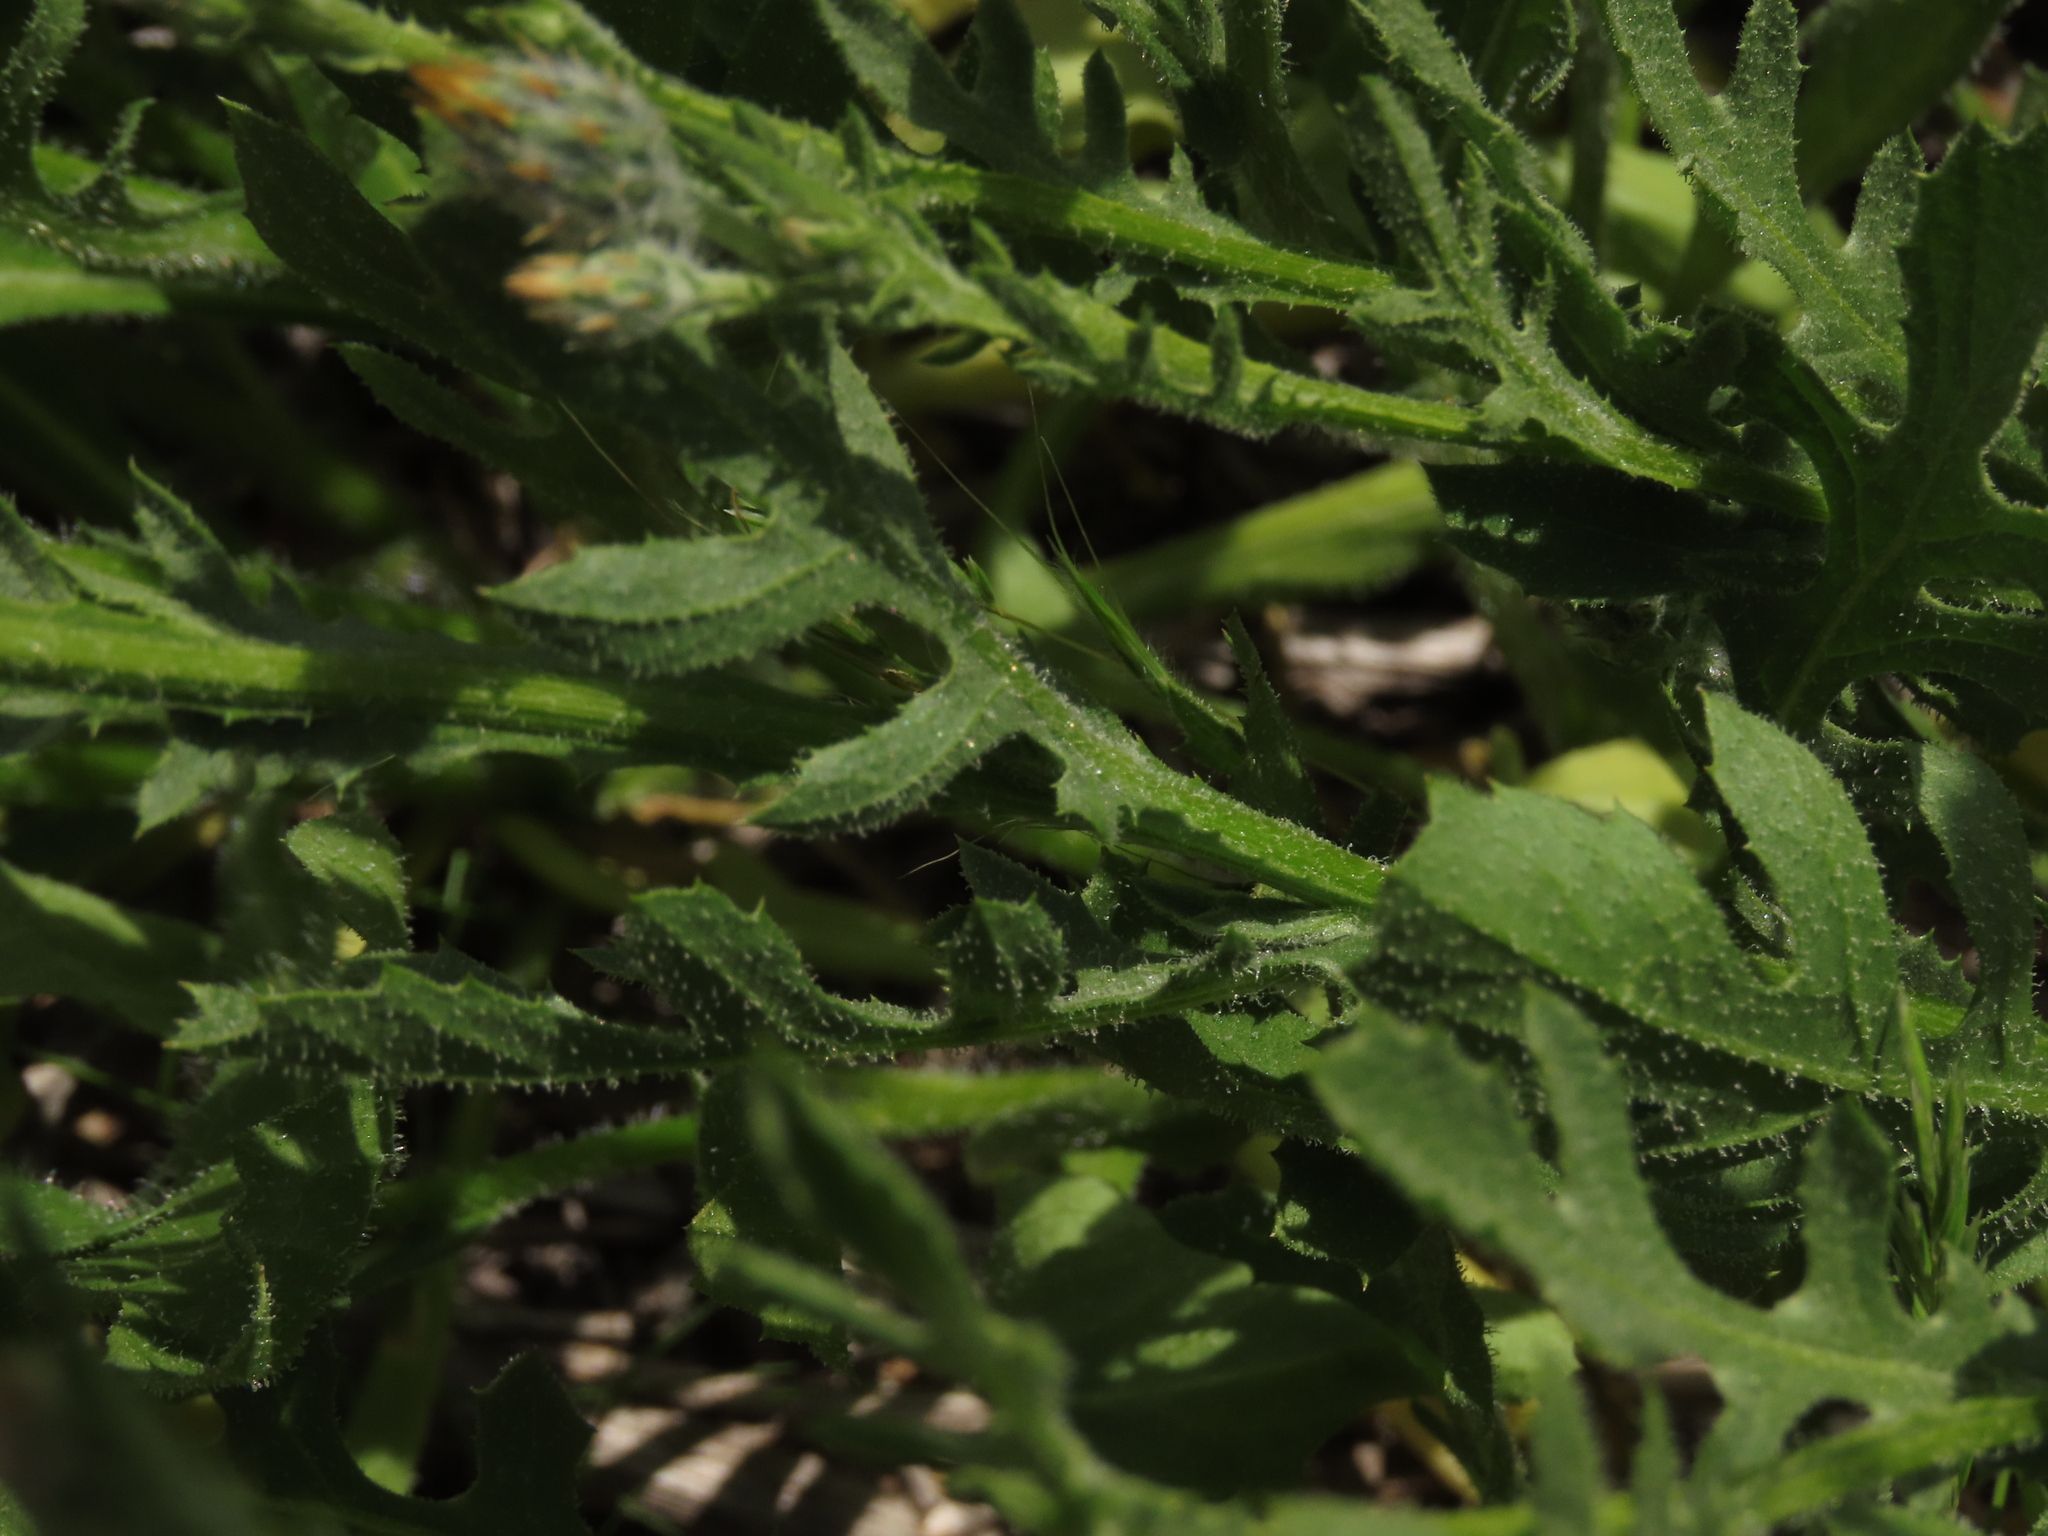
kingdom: Plantae
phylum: Tracheophyta
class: Magnoliopsida
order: Asterales
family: Asteraceae
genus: Volutaria
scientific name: Volutaria tubuliflora
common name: Desert knapweed
